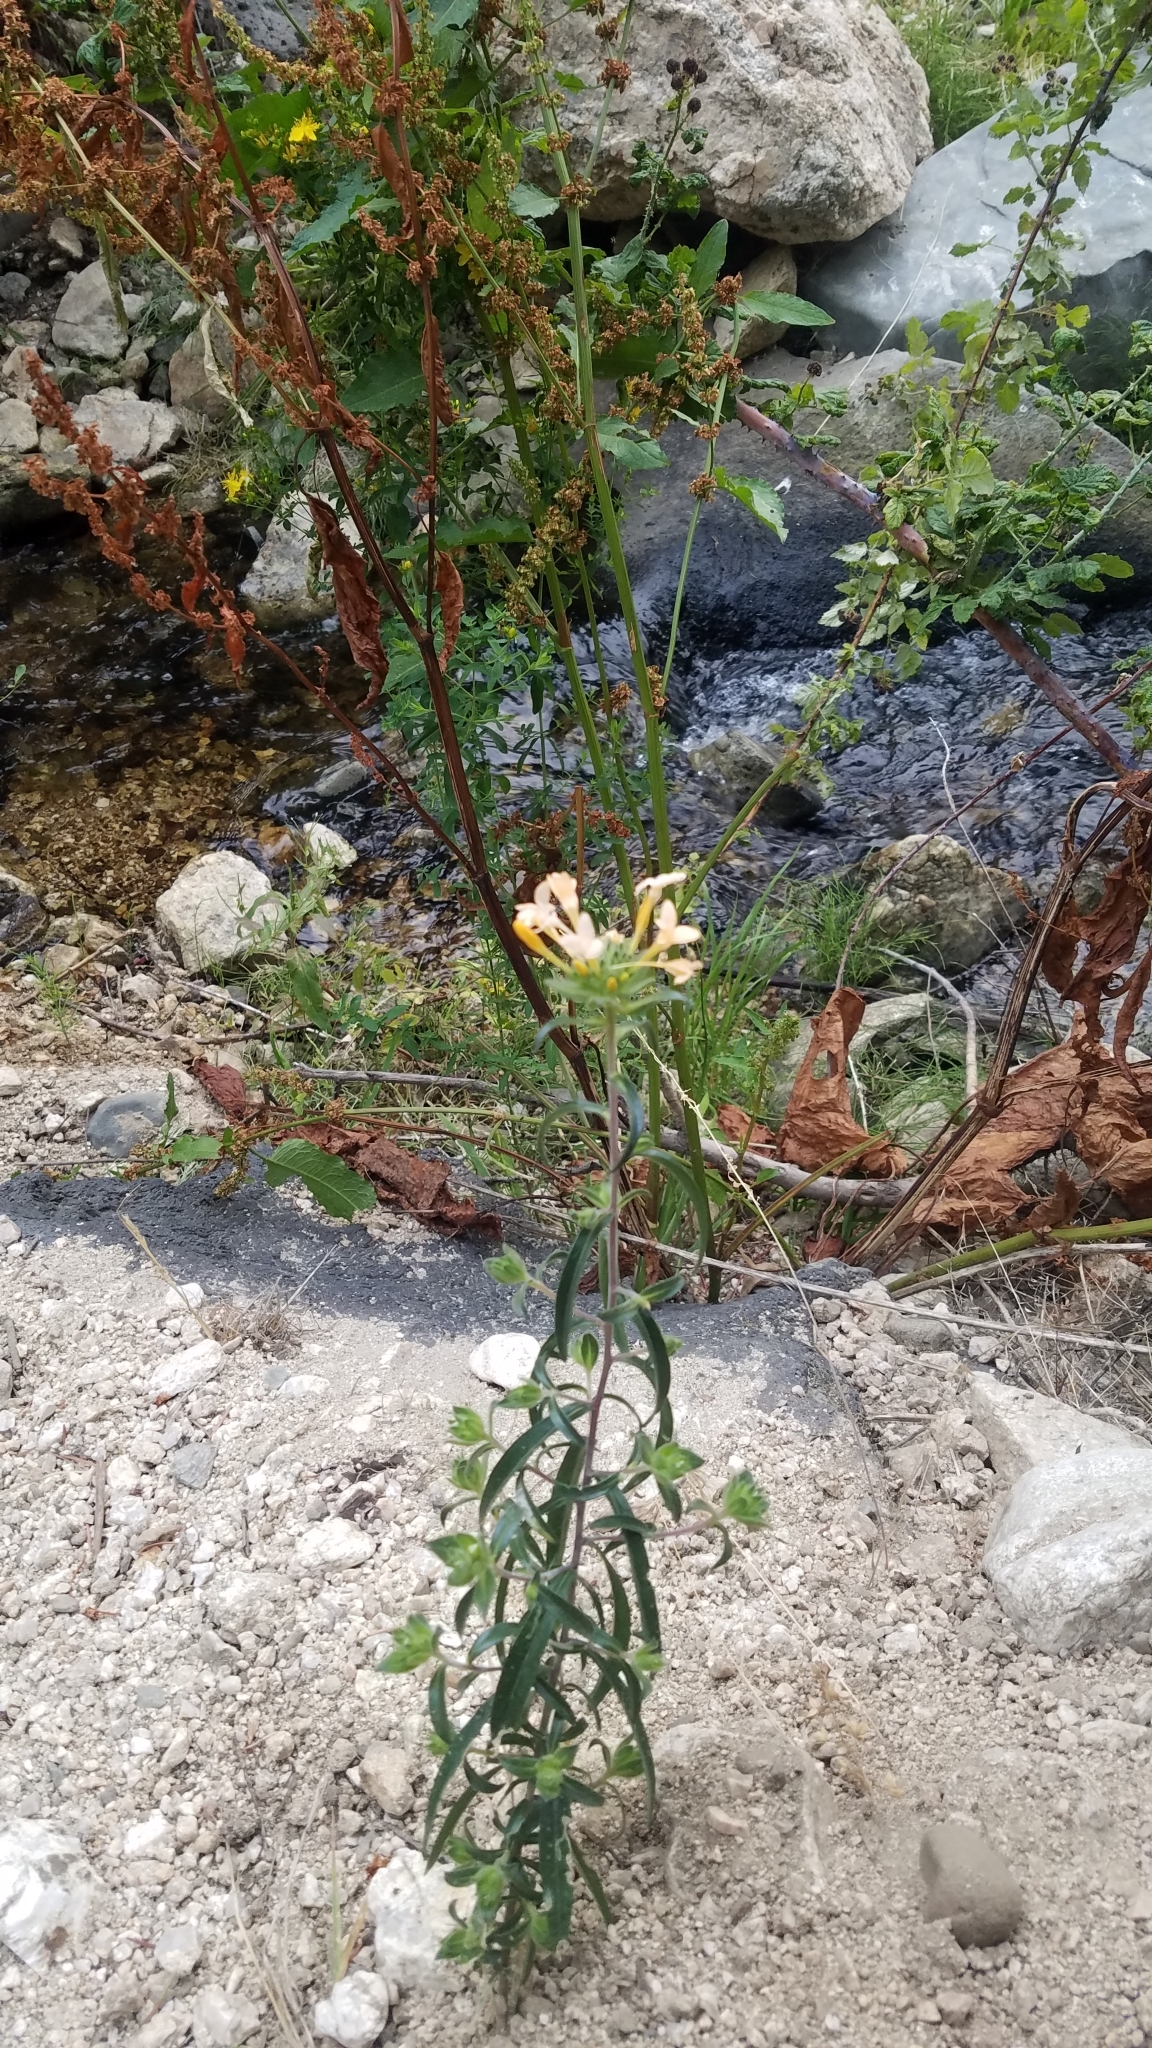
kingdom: Plantae
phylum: Tracheophyta
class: Magnoliopsida
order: Ericales
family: Polemoniaceae
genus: Collomia
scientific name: Collomia grandiflora
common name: California strawflower
